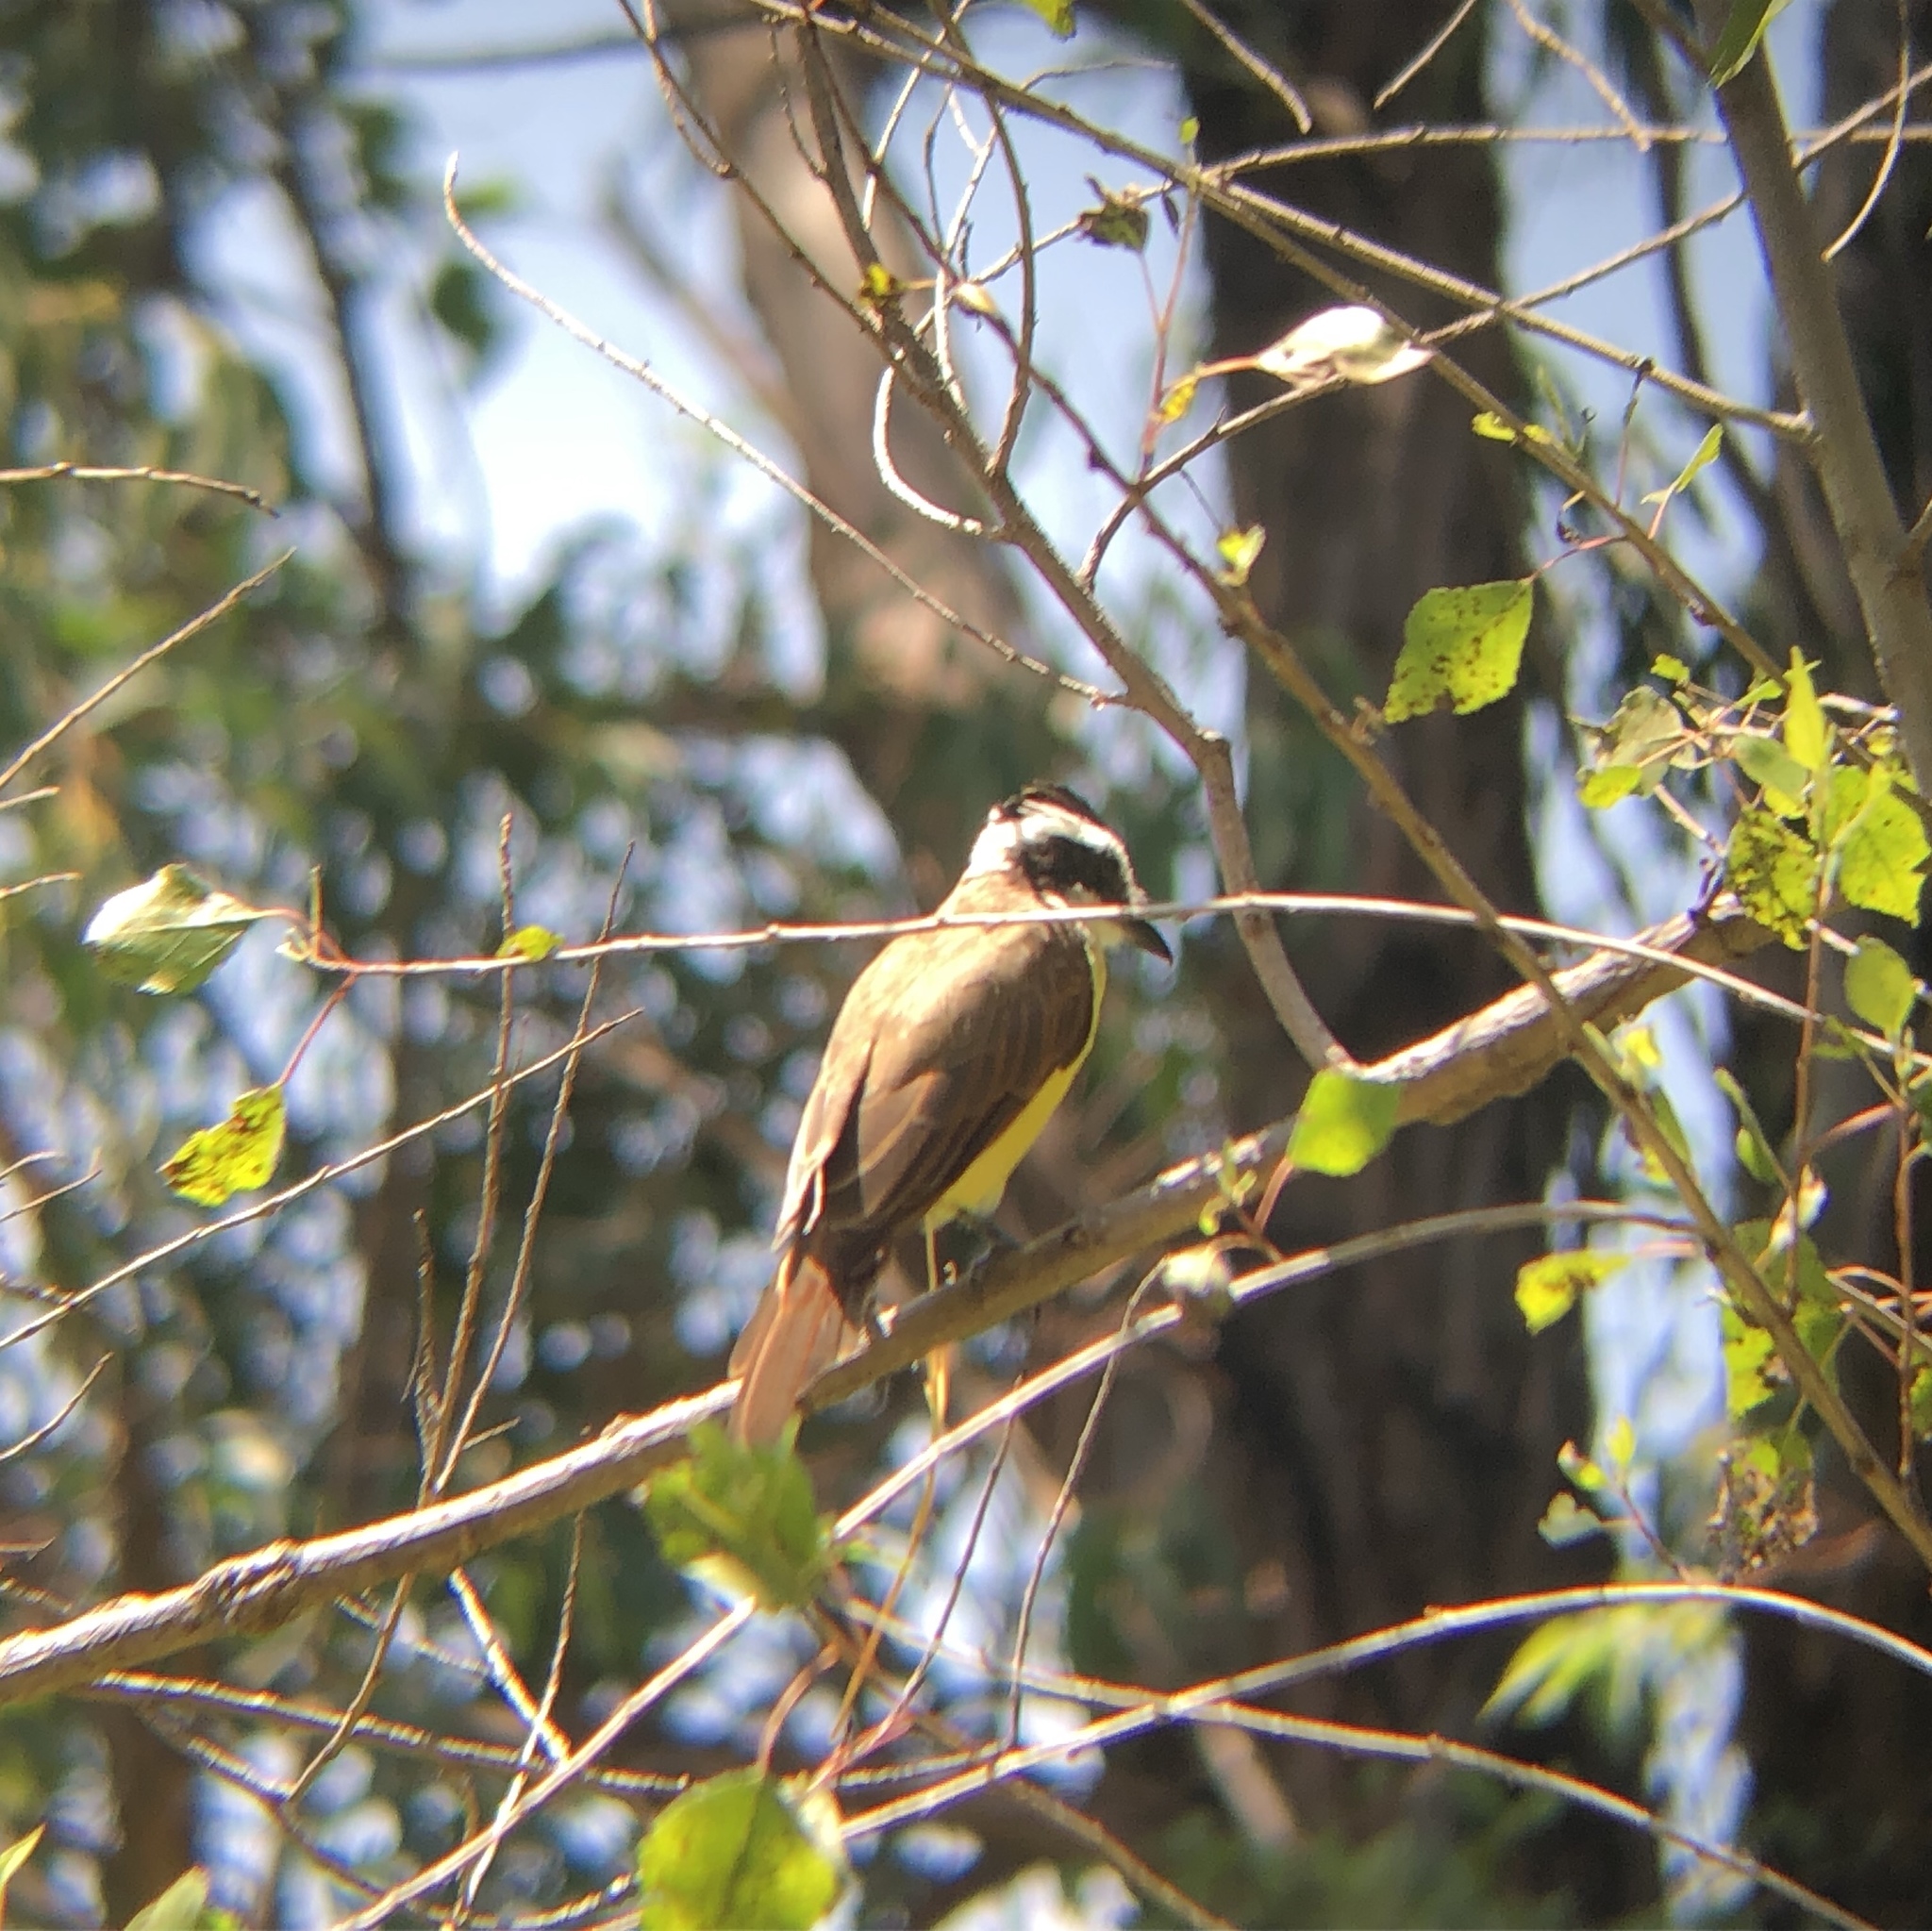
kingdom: Animalia
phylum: Chordata
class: Aves
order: Passeriformes
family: Tyrannidae
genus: Pitangus
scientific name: Pitangus sulphuratus
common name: Great kiskadee
